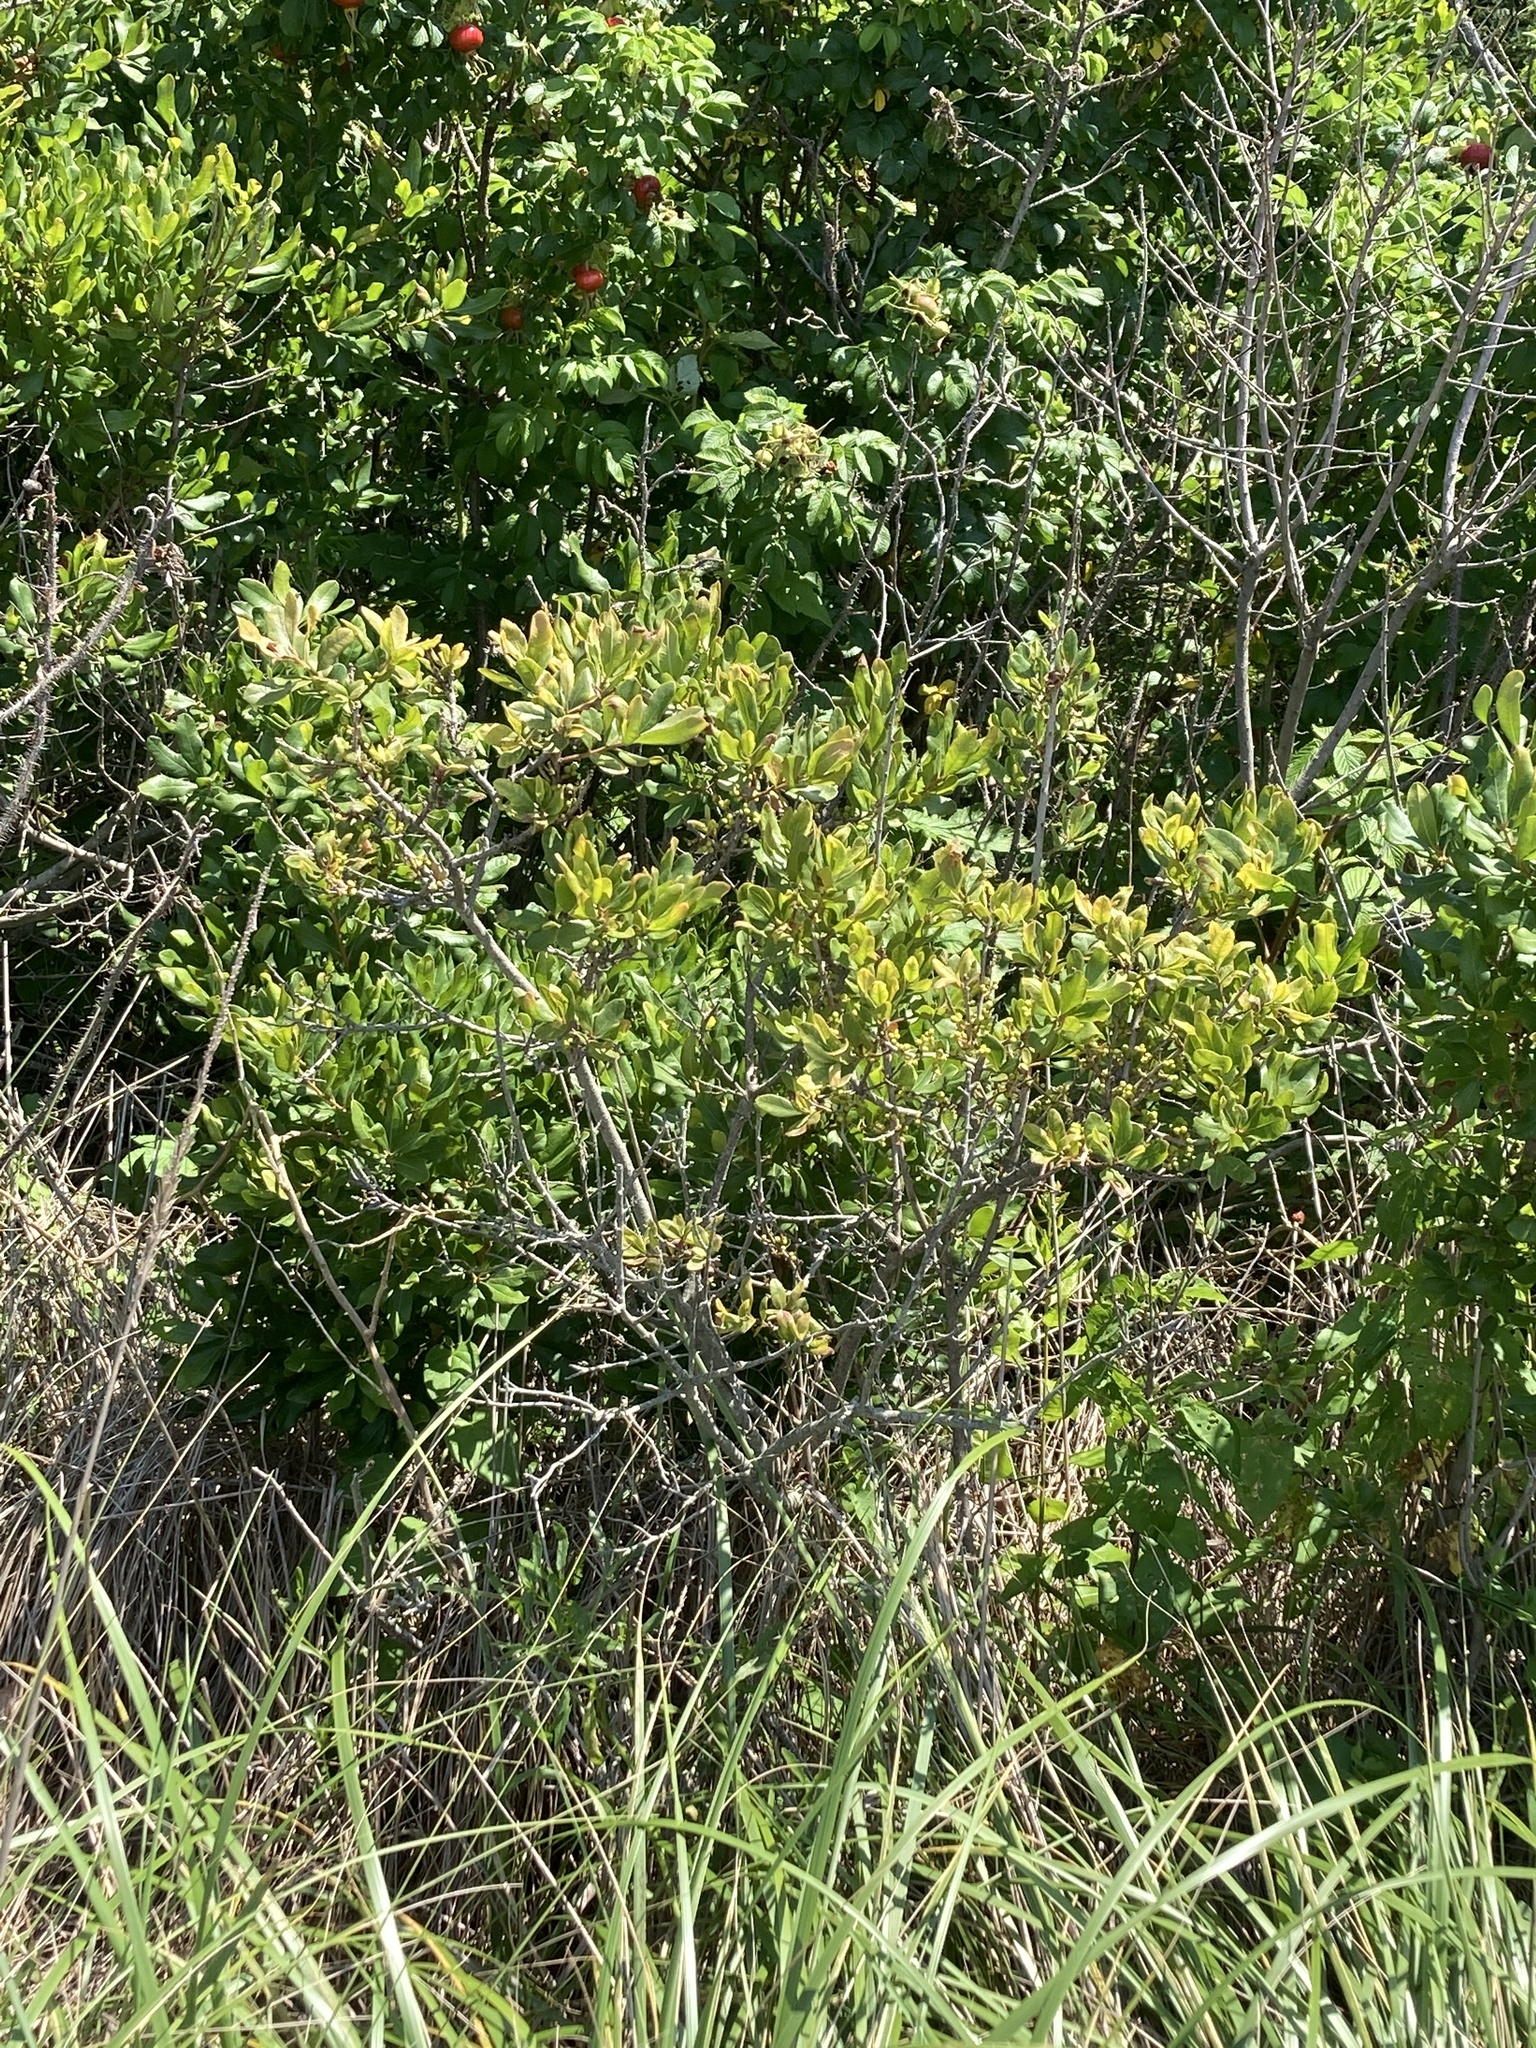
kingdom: Plantae
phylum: Tracheophyta
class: Magnoliopsida
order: Fagales
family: Myricaceae
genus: Morella
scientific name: Morella pensylvanica
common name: Northern bayberry
